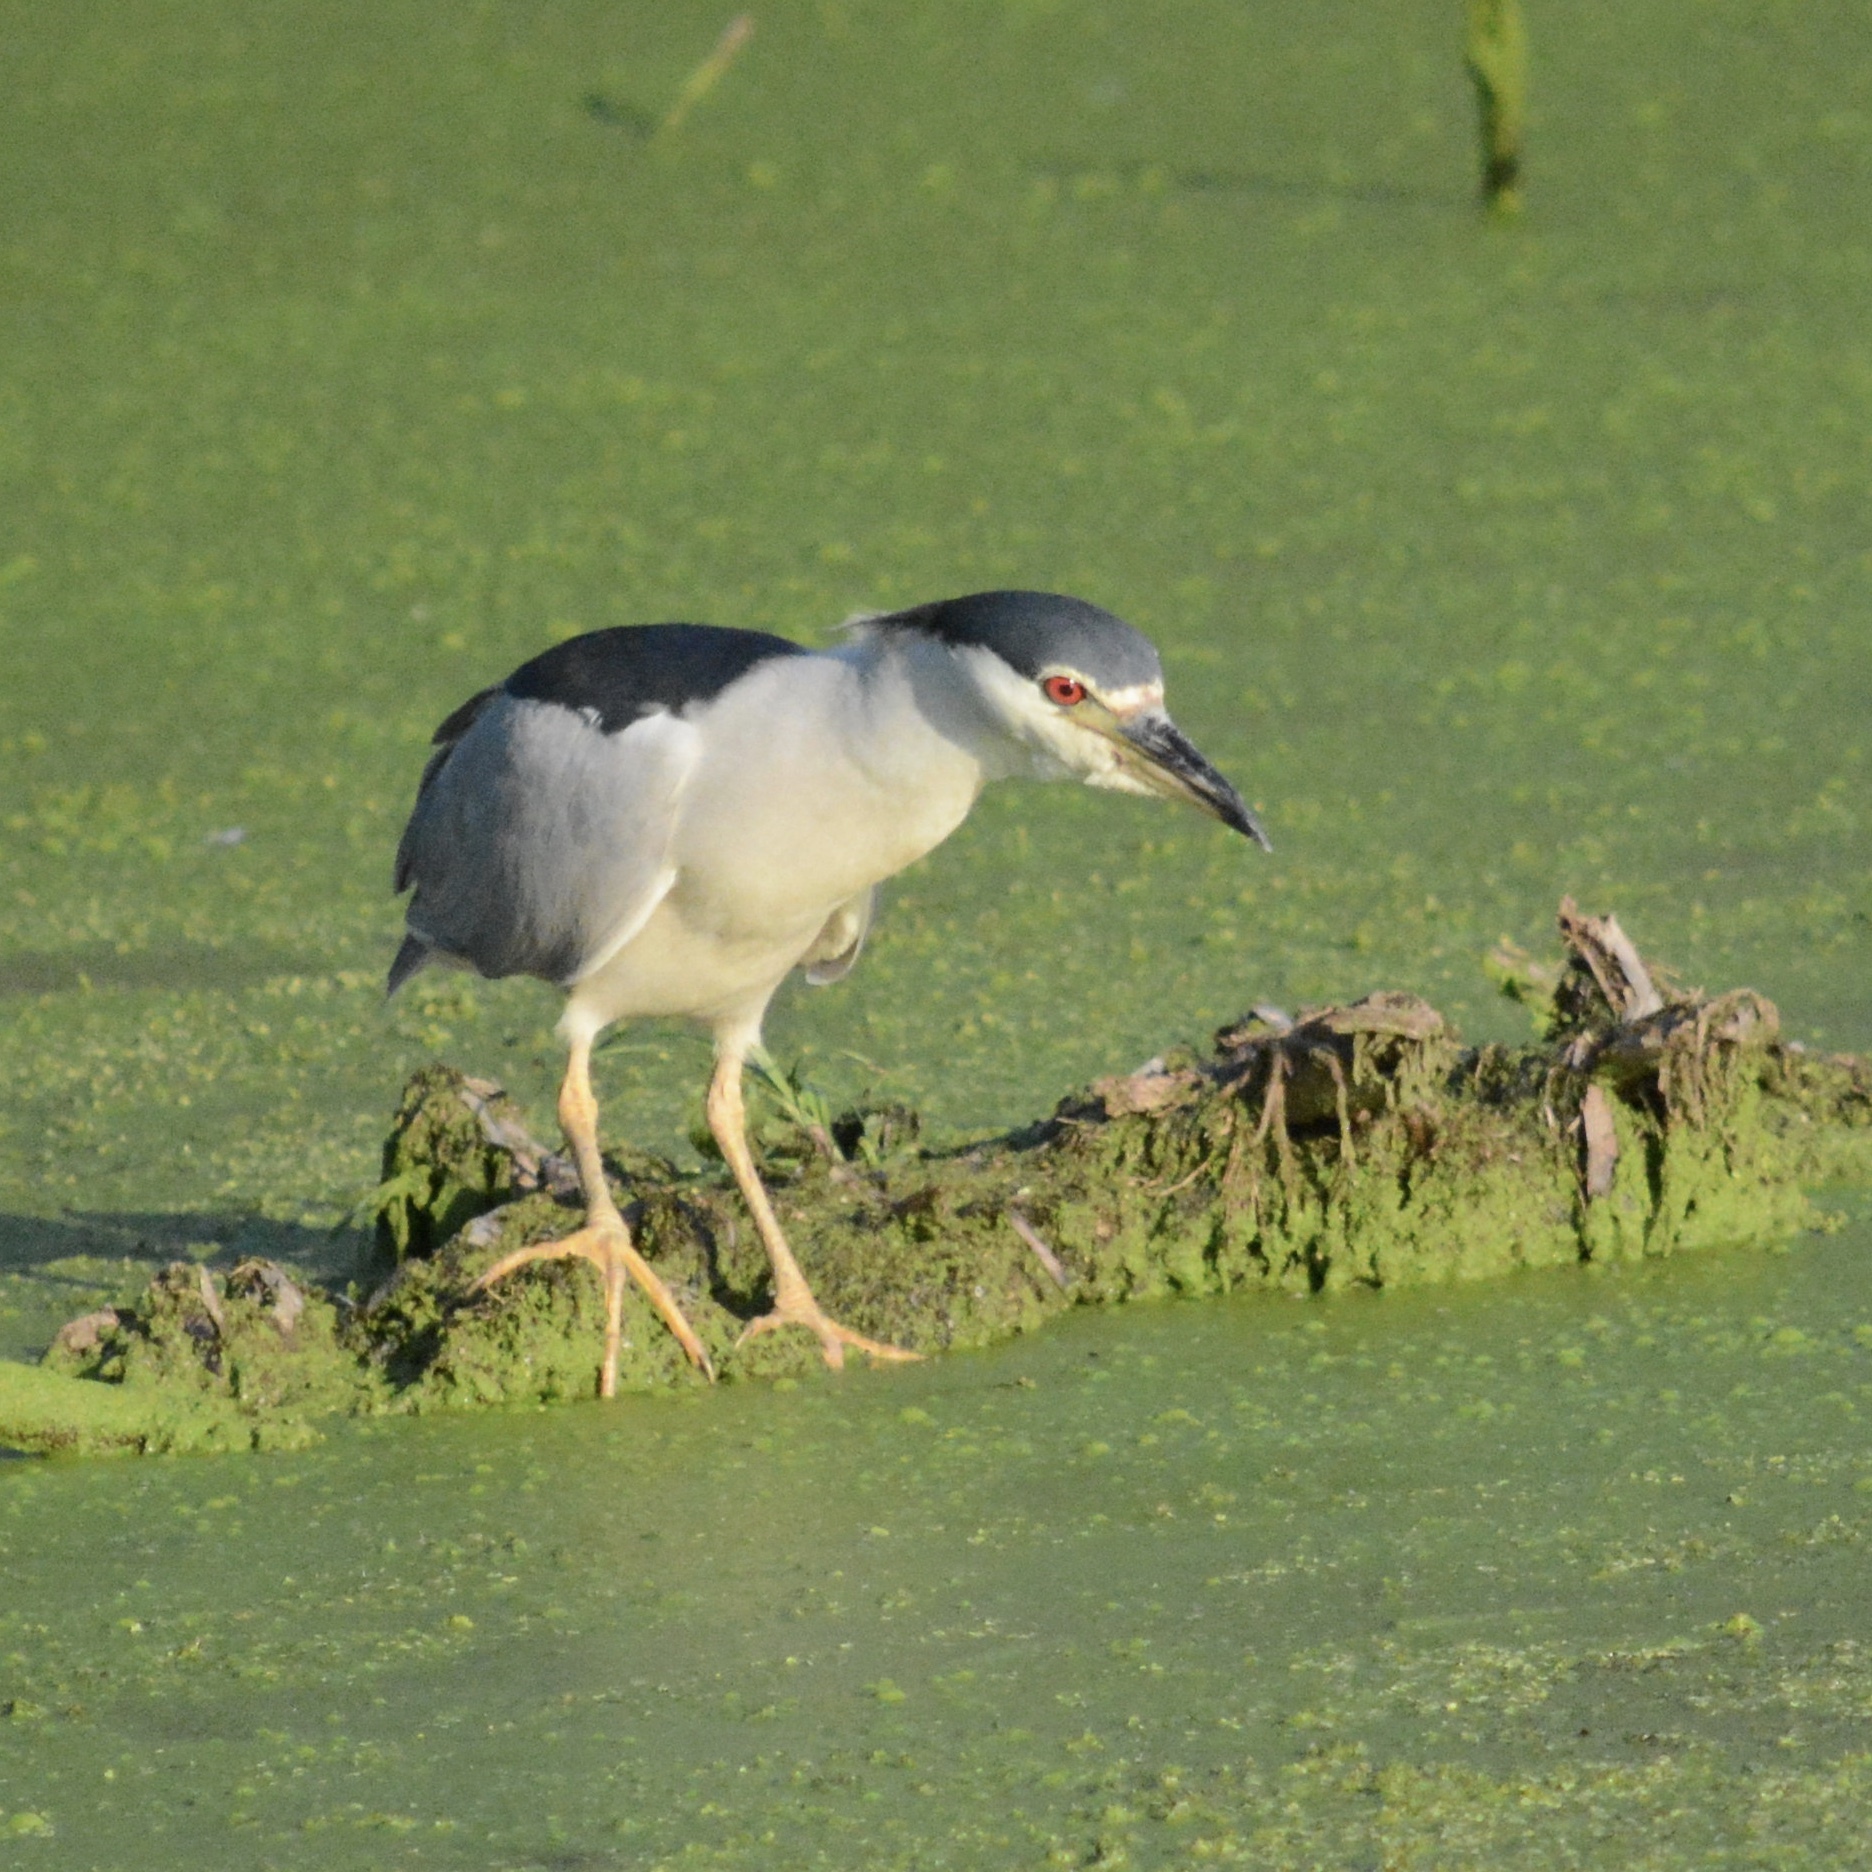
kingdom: Animalia
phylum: Chordata
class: Aves
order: Pelecaniformes
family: Ardeidae
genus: Nycticorax
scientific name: Nycticorax nycticorax
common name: Black-crowned night heron
